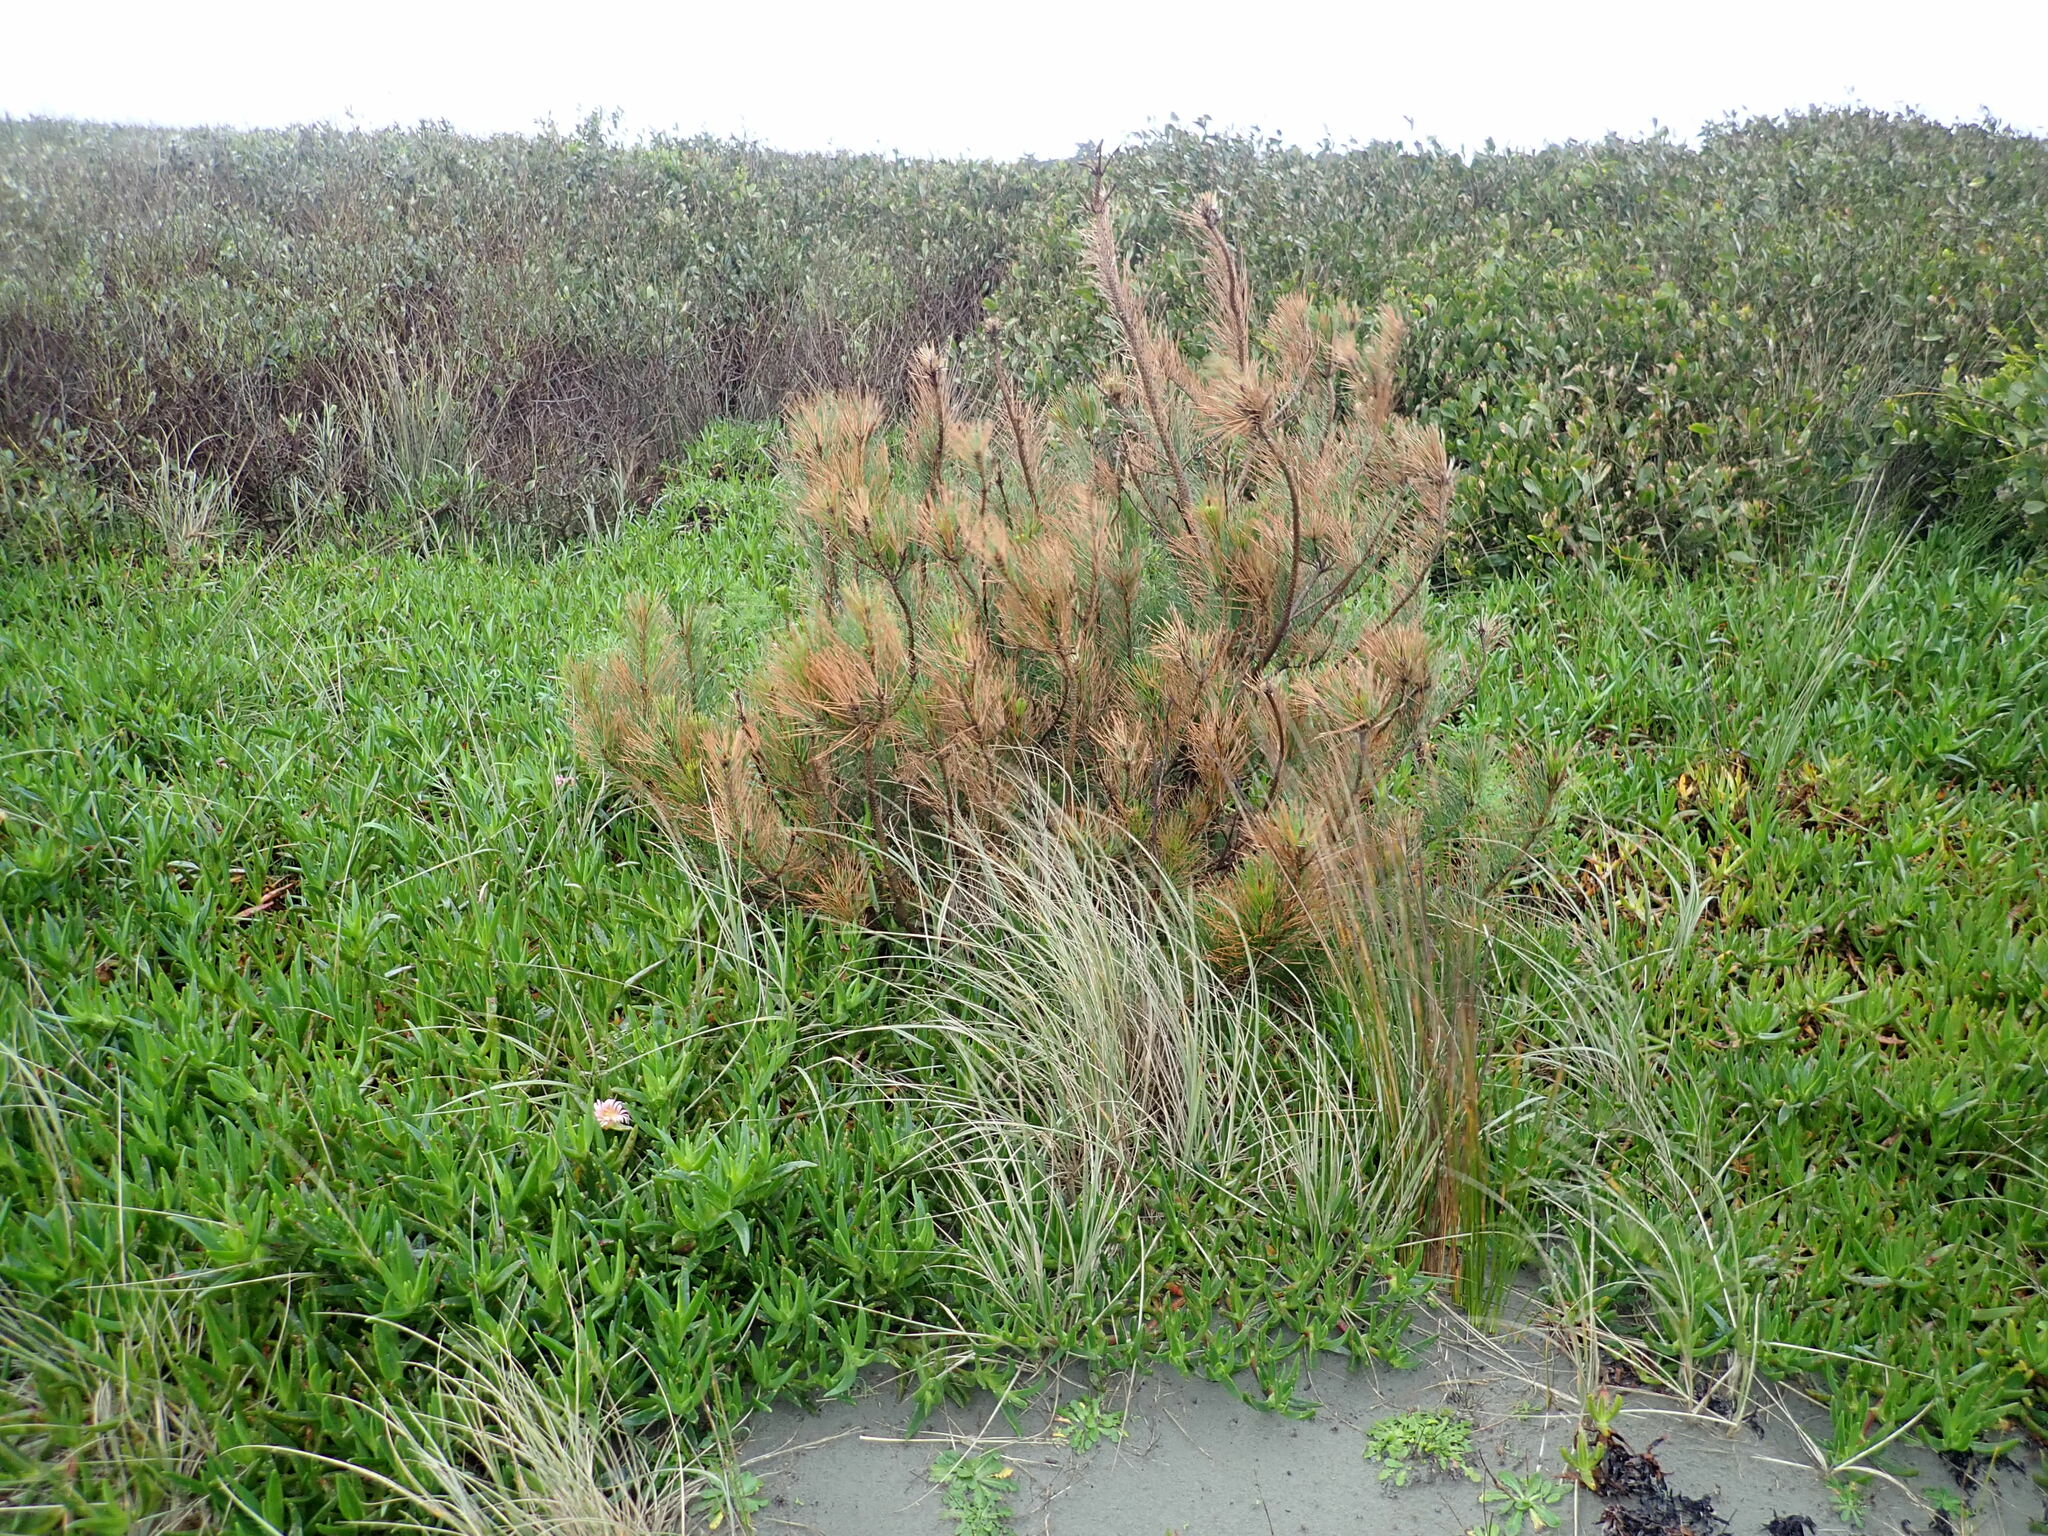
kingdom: Plantae
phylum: Tracheophyta
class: Pinopsida
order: Pinales
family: Pinaceae
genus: Pinus
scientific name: Pinus radiata
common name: Monterey pine
